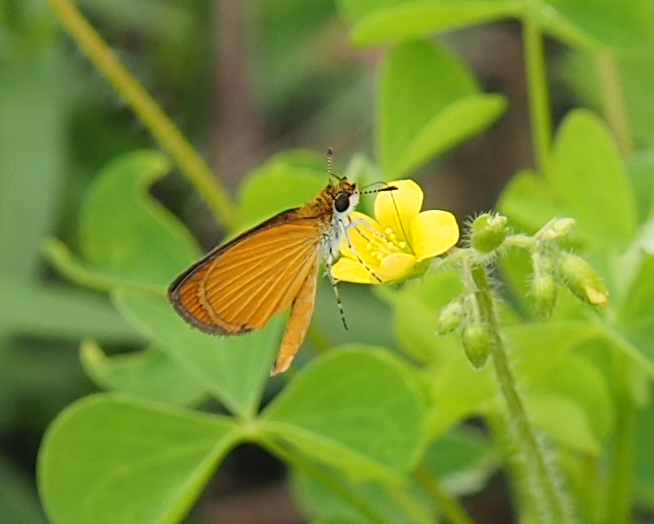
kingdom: Animalia
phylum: Arthropoda
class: Insecta
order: Lepidoptera
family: Hesperiidae
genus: Ancyloxypha
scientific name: Ancyloxypha numitor
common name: Least skipper
